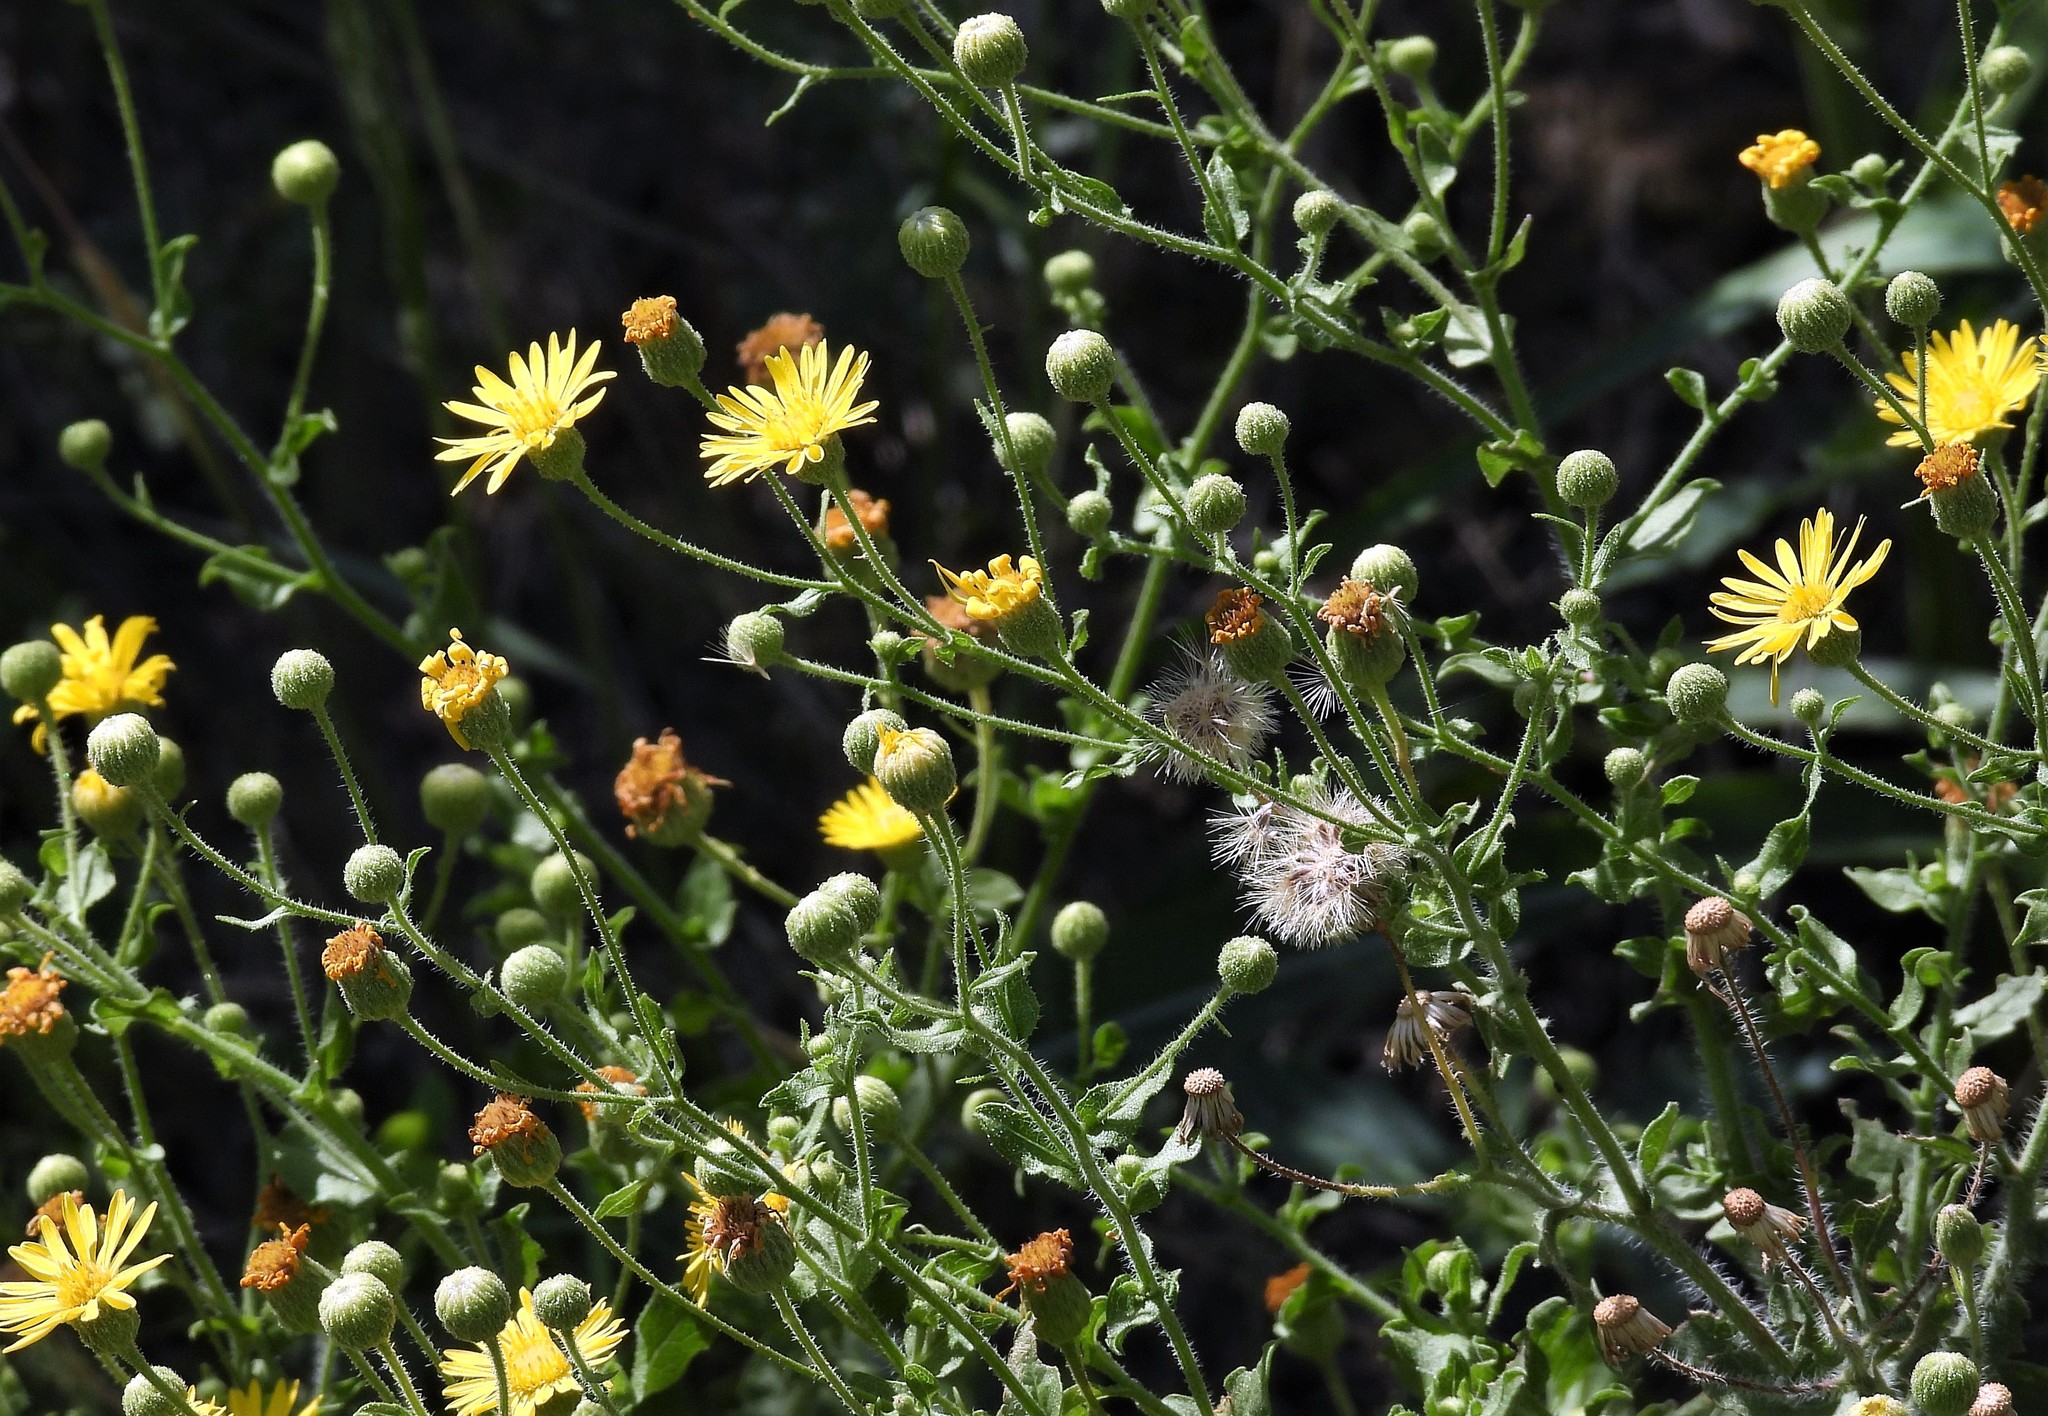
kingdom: Plantae
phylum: Tracheophyta
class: Magnoliopsida
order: Asterales
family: Asteraceae
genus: Heterotheca
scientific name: Heterotheca subaxillaris
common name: Camphorweed
